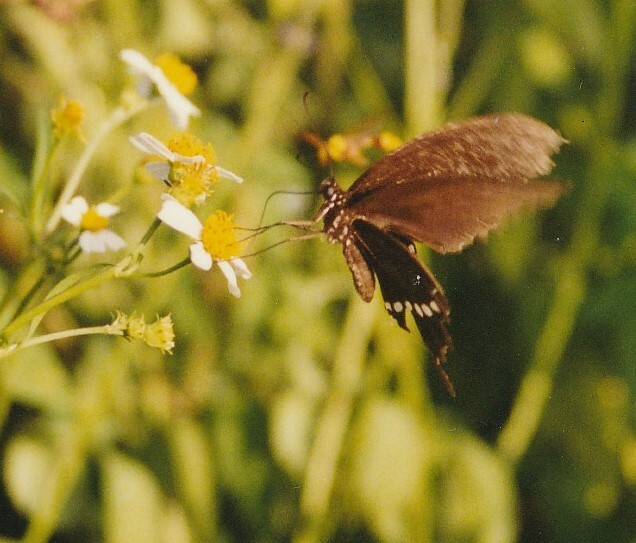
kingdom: Animalia
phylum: Arthropoda
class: Insecta
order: Lepidoptera
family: Papilionidae
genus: Papilio
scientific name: Papilio polytes
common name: Common mormon
